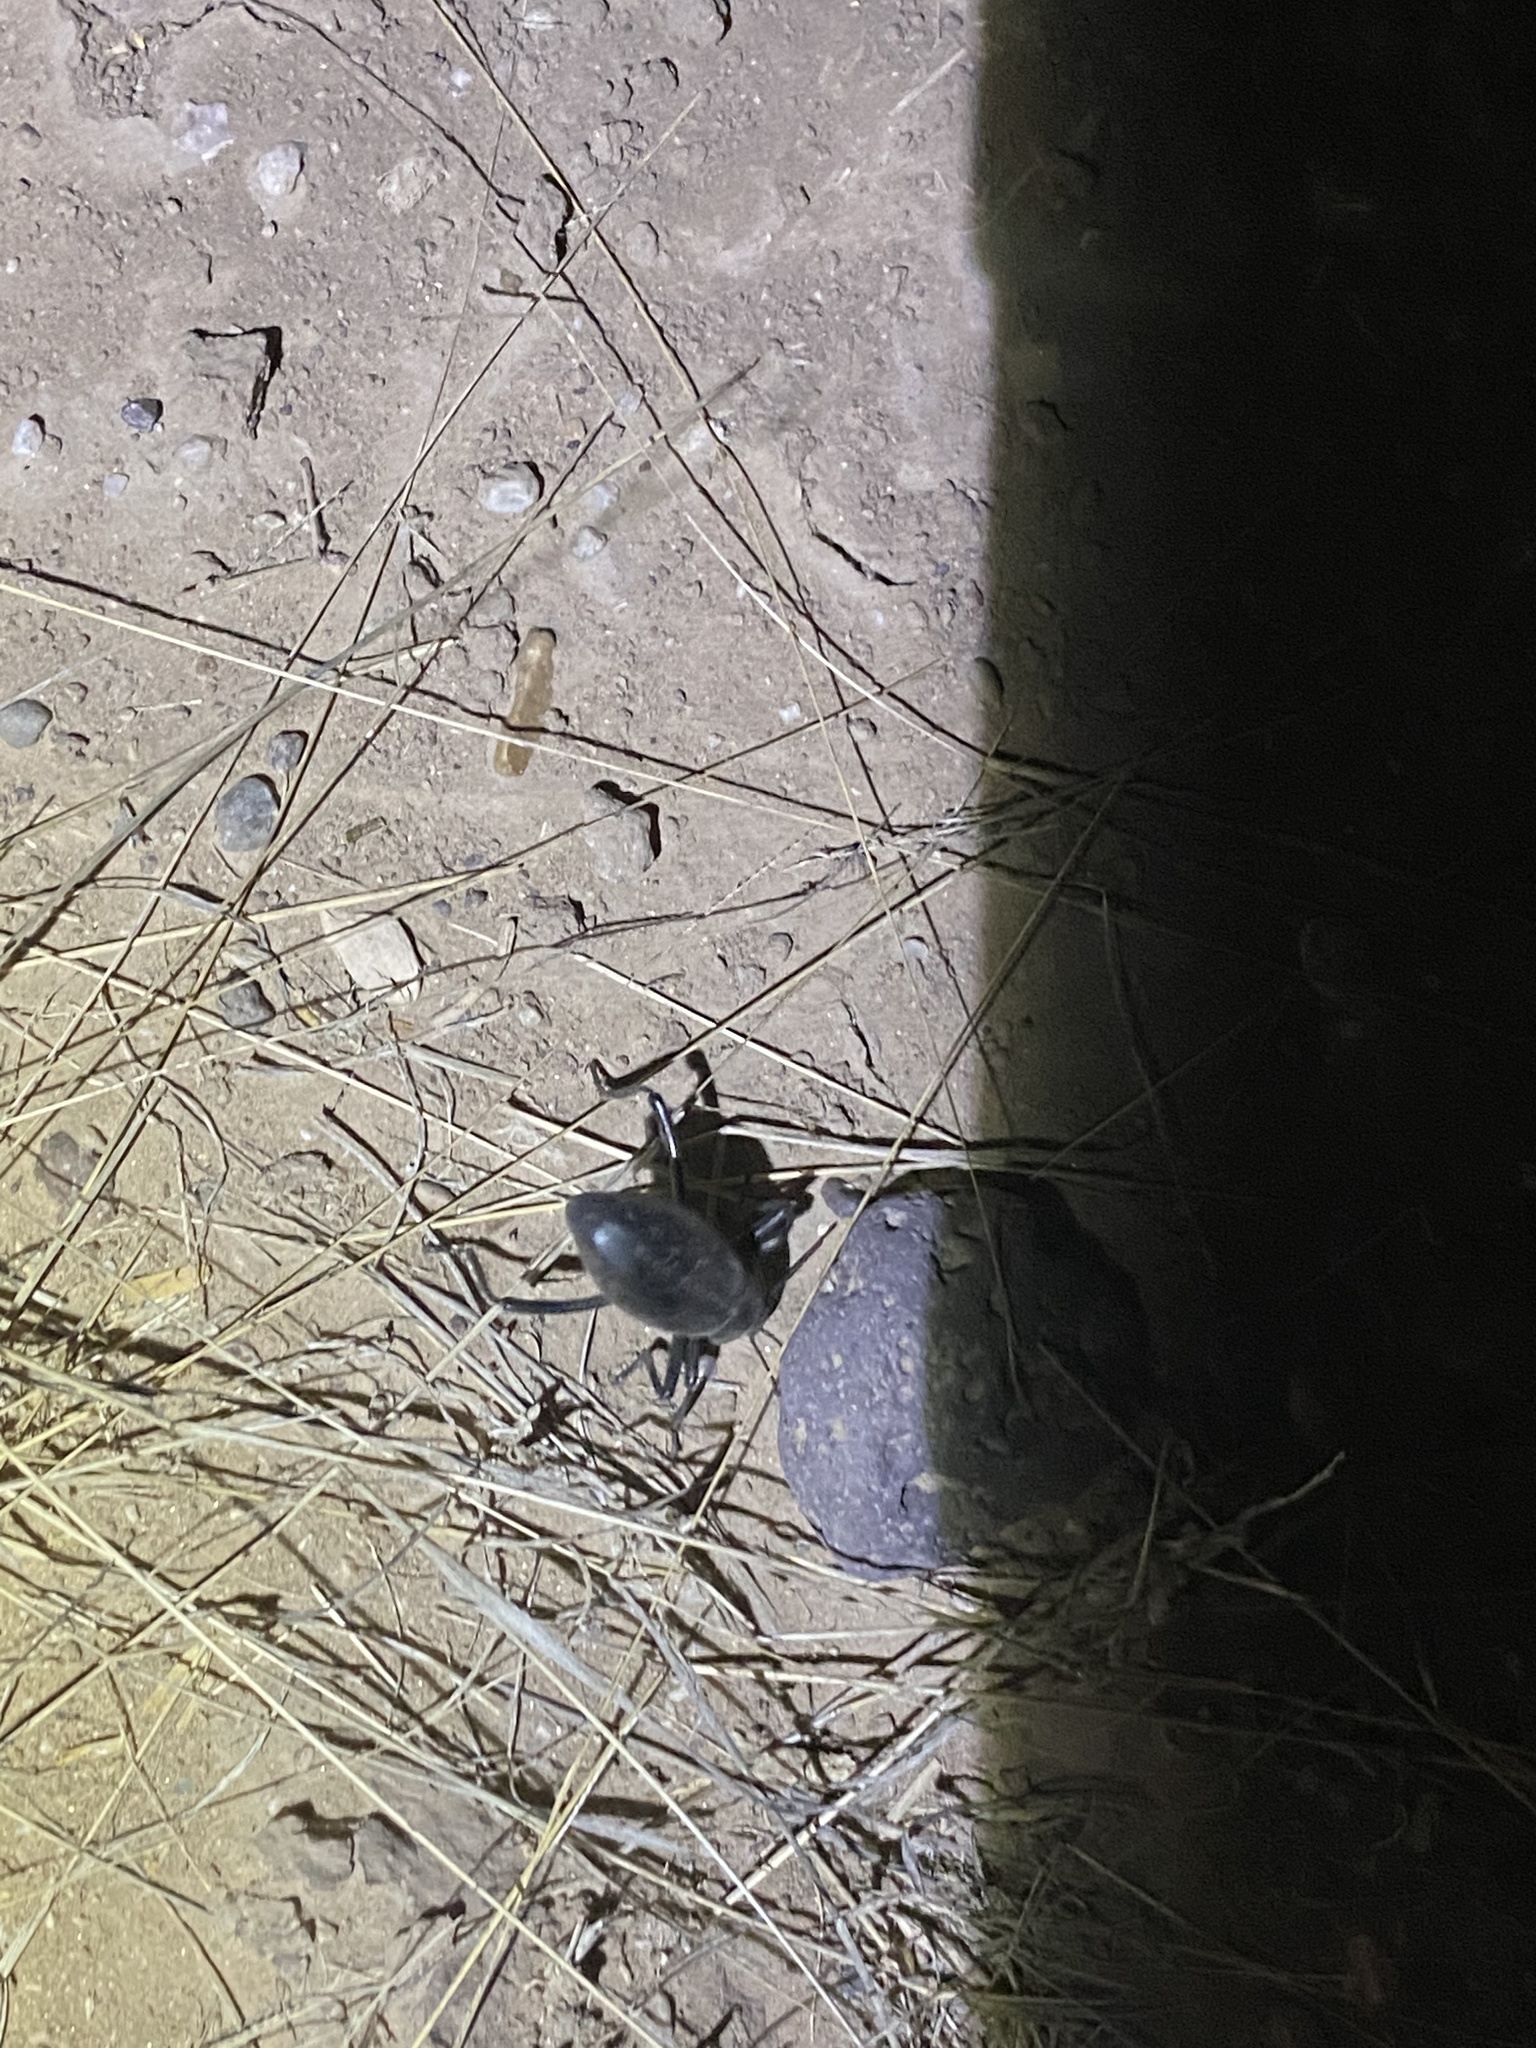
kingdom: Animalia
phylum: Arthropoda
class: Insecta
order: Coleoptera
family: Tenebrionidae
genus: Eleodes
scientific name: Eleodes armata
